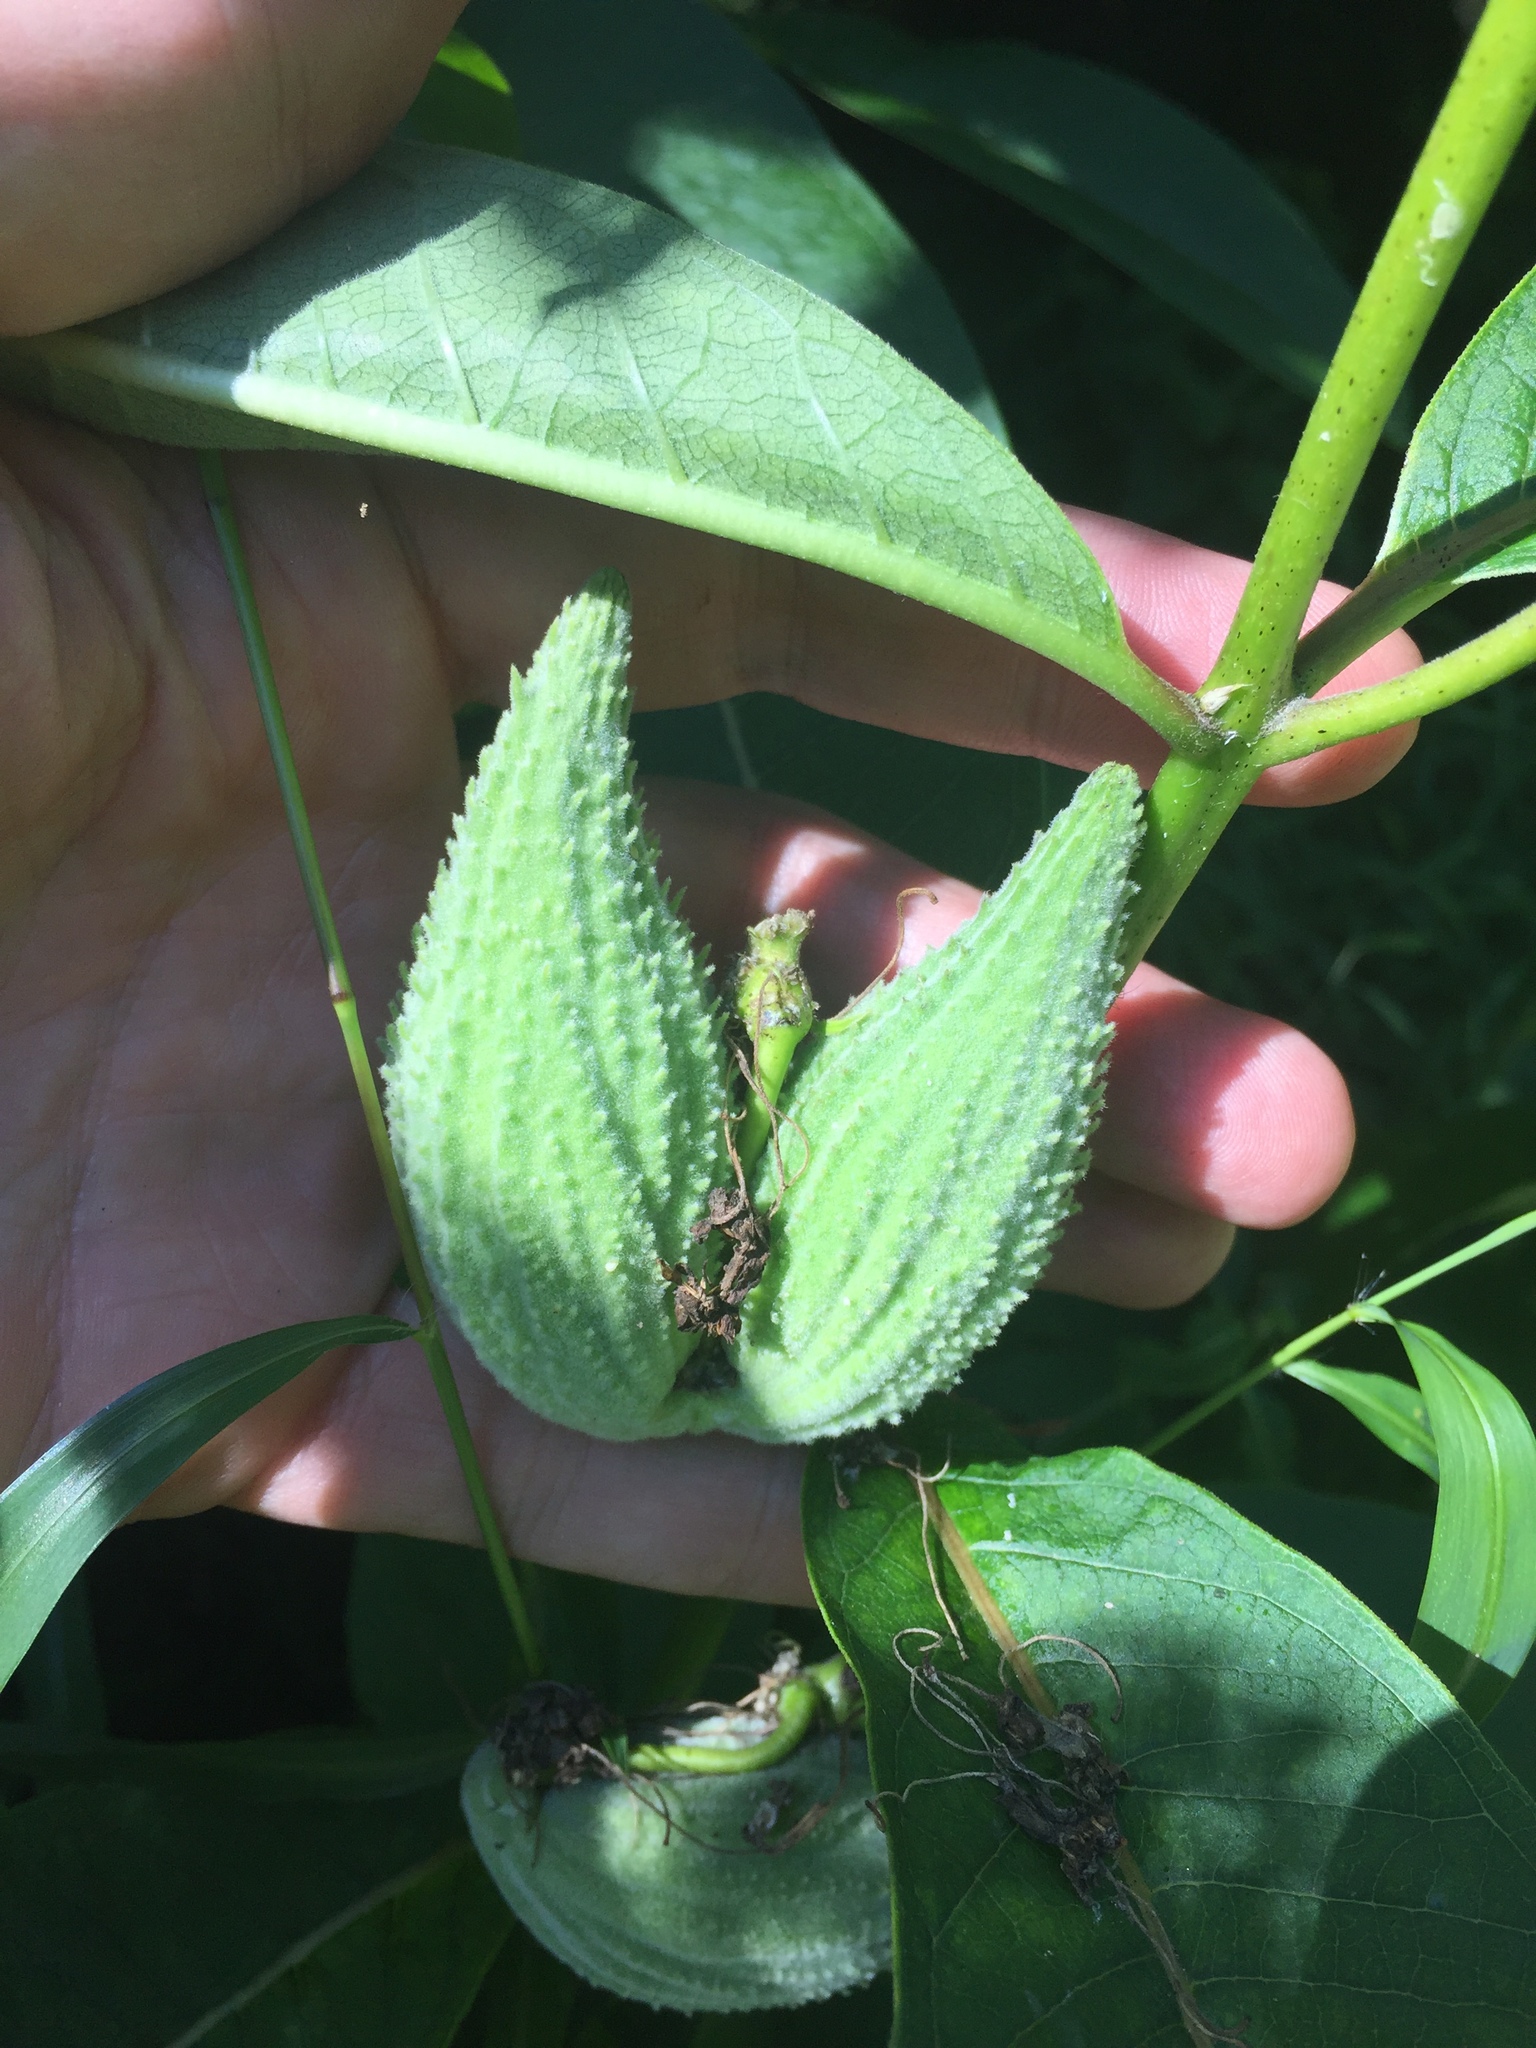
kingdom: Plantae
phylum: Tracheophyta
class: Magnoliopsida
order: Gentianales
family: Apocynaceae
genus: Asclepias
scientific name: Asclepias syriaca
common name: Common milkweed
